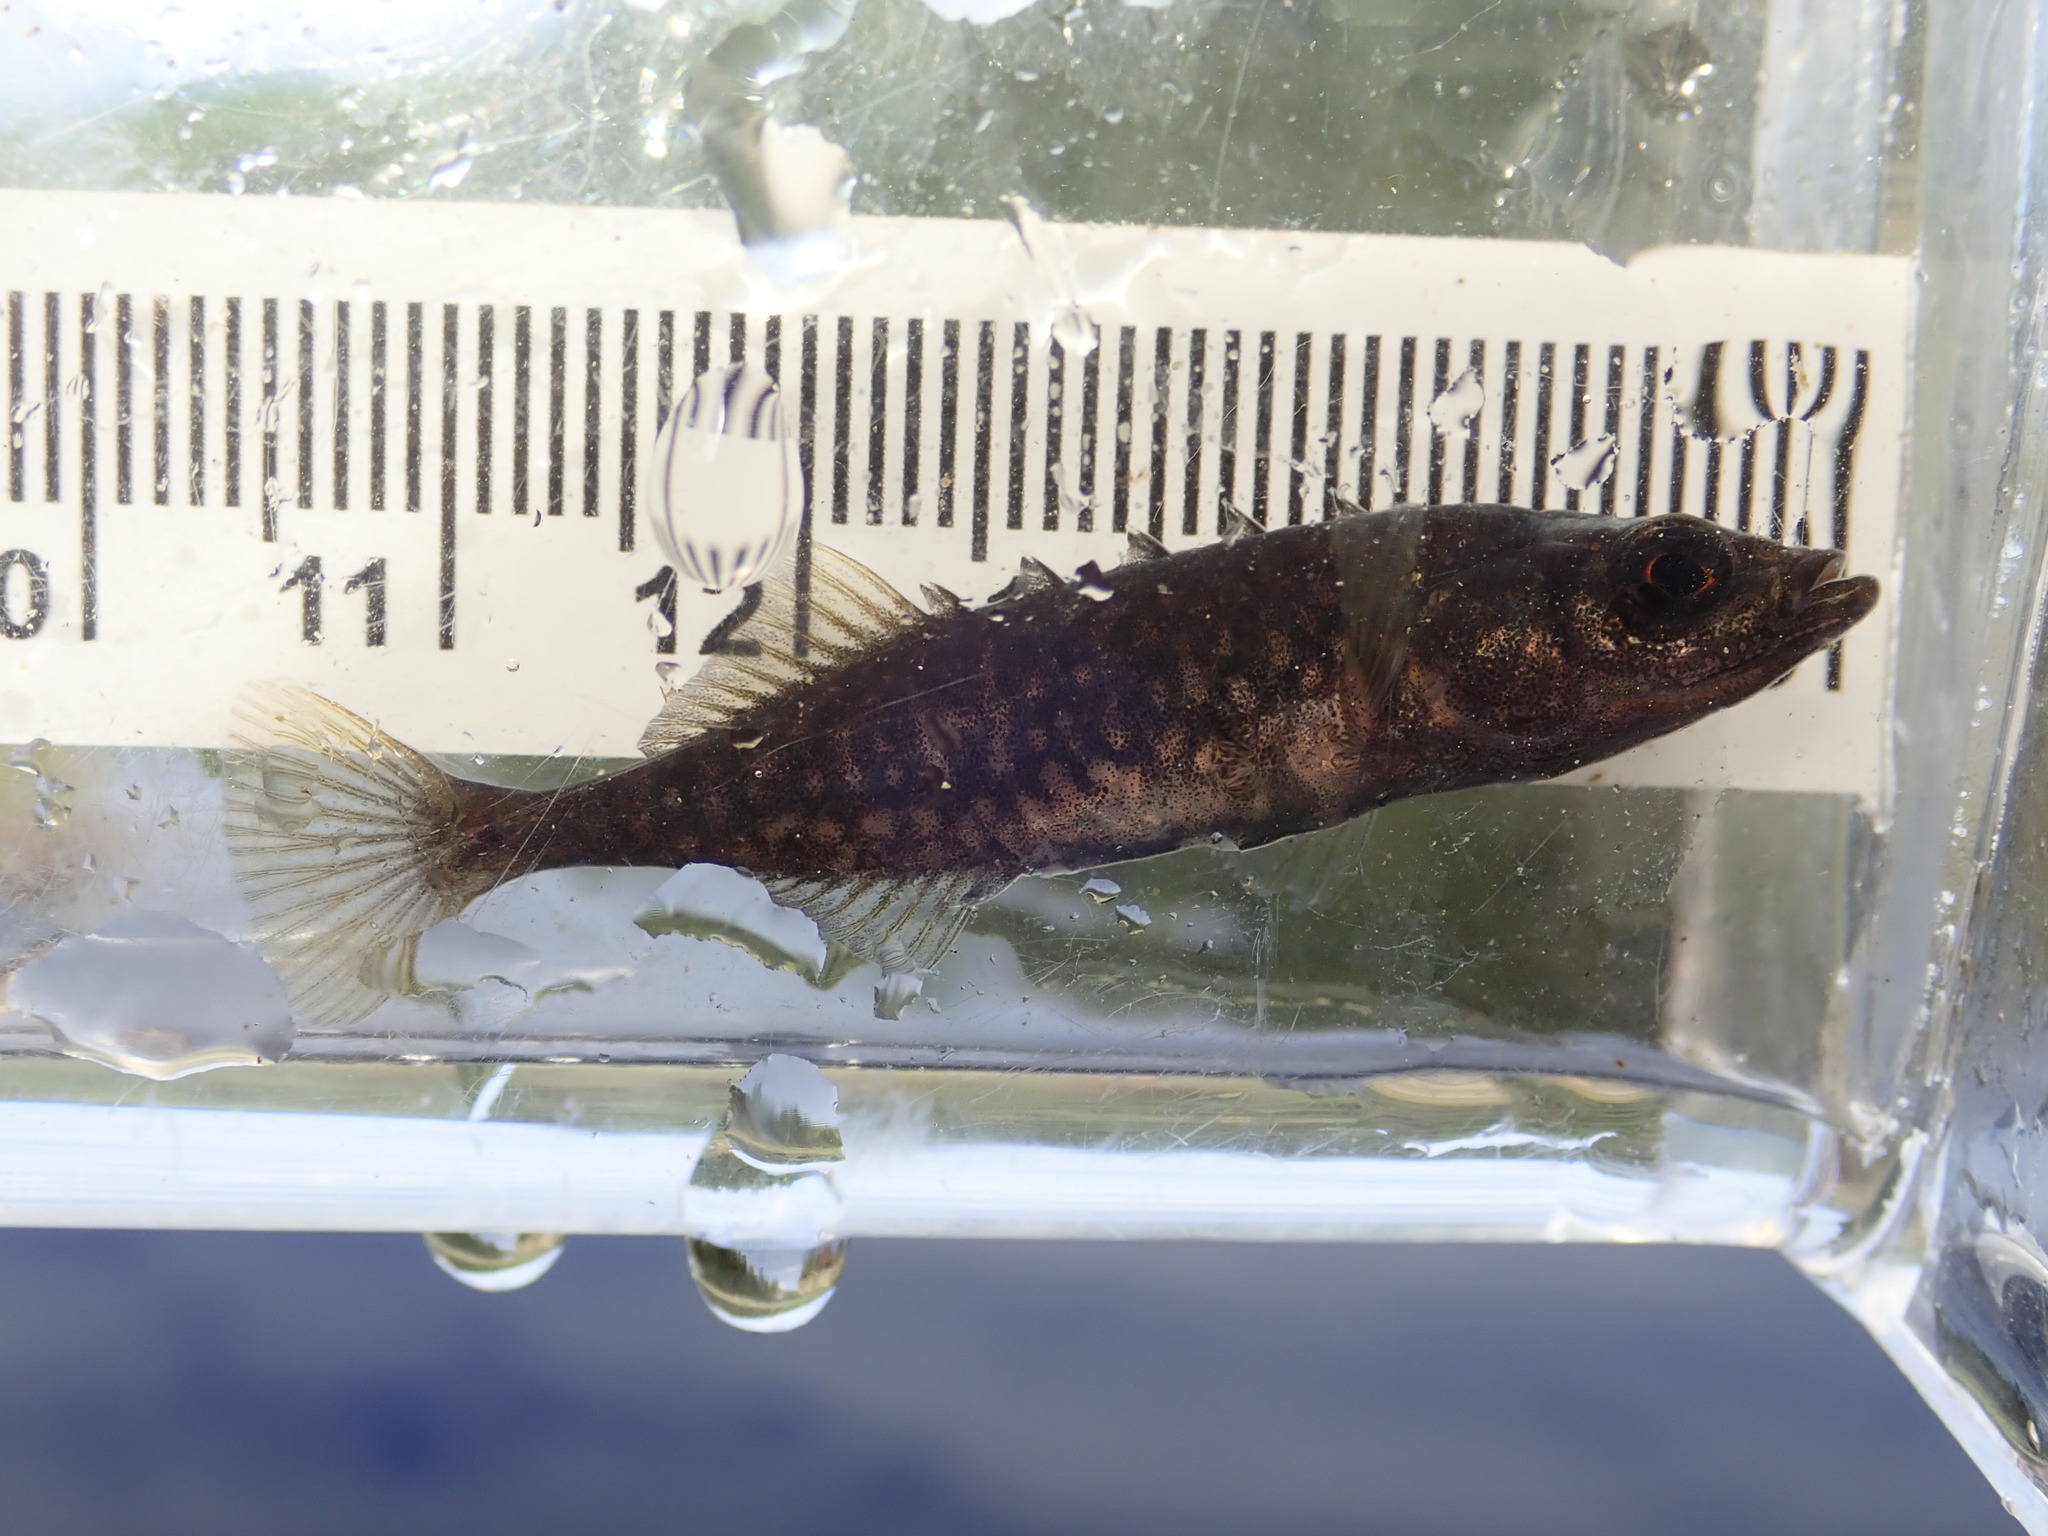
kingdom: Animalia
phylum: Chordata
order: Gasterosteiformes
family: Gasterosteidae
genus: Culaea
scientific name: Culaea inconstans
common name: Brook stickleback
